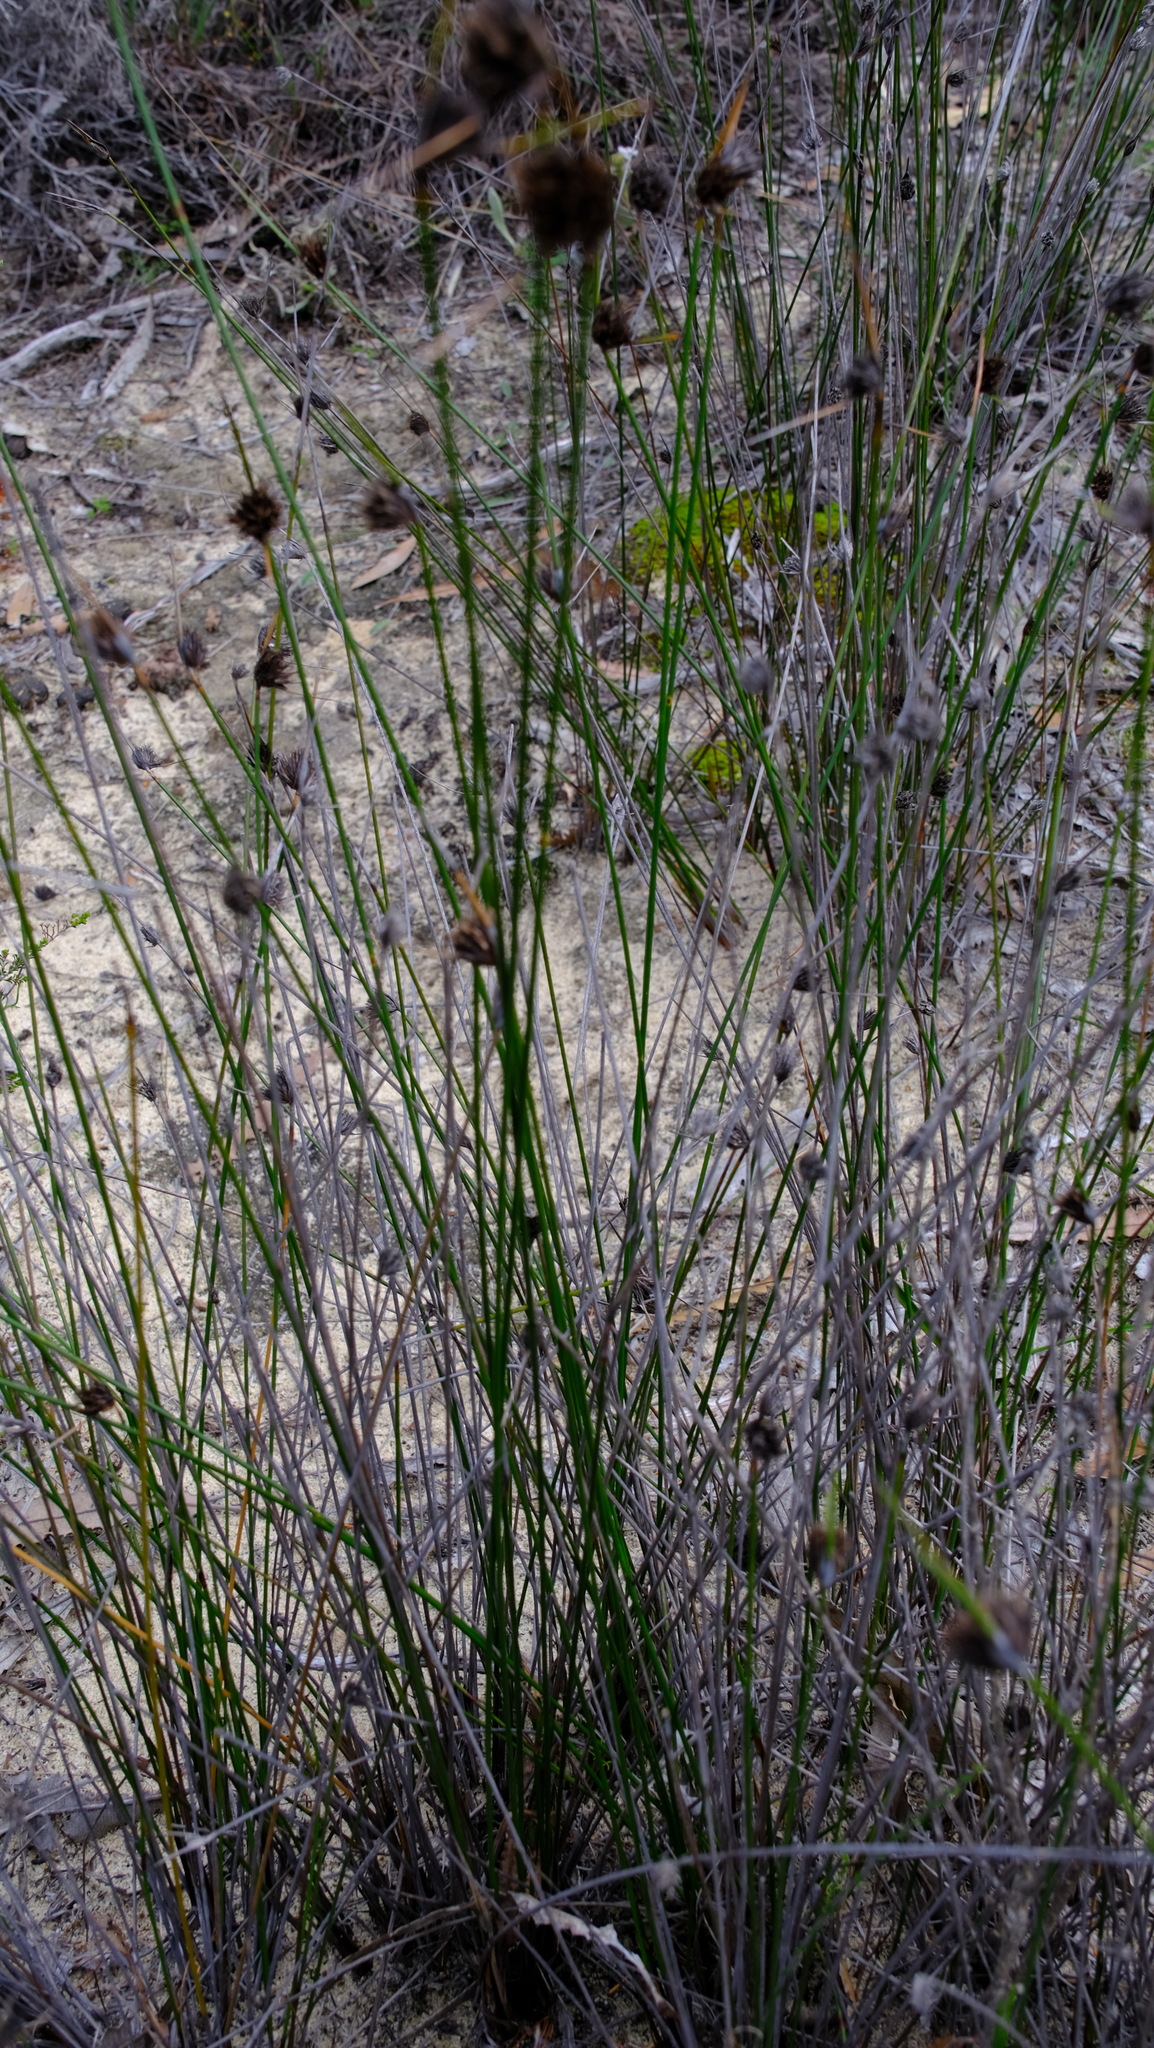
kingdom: Plantae
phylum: Tracheophyta
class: Liliopsida
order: Poales
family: Cyperaceae
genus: Mesomelaena
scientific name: Mesomelaena pseudostygia
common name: Semaphore sedge
